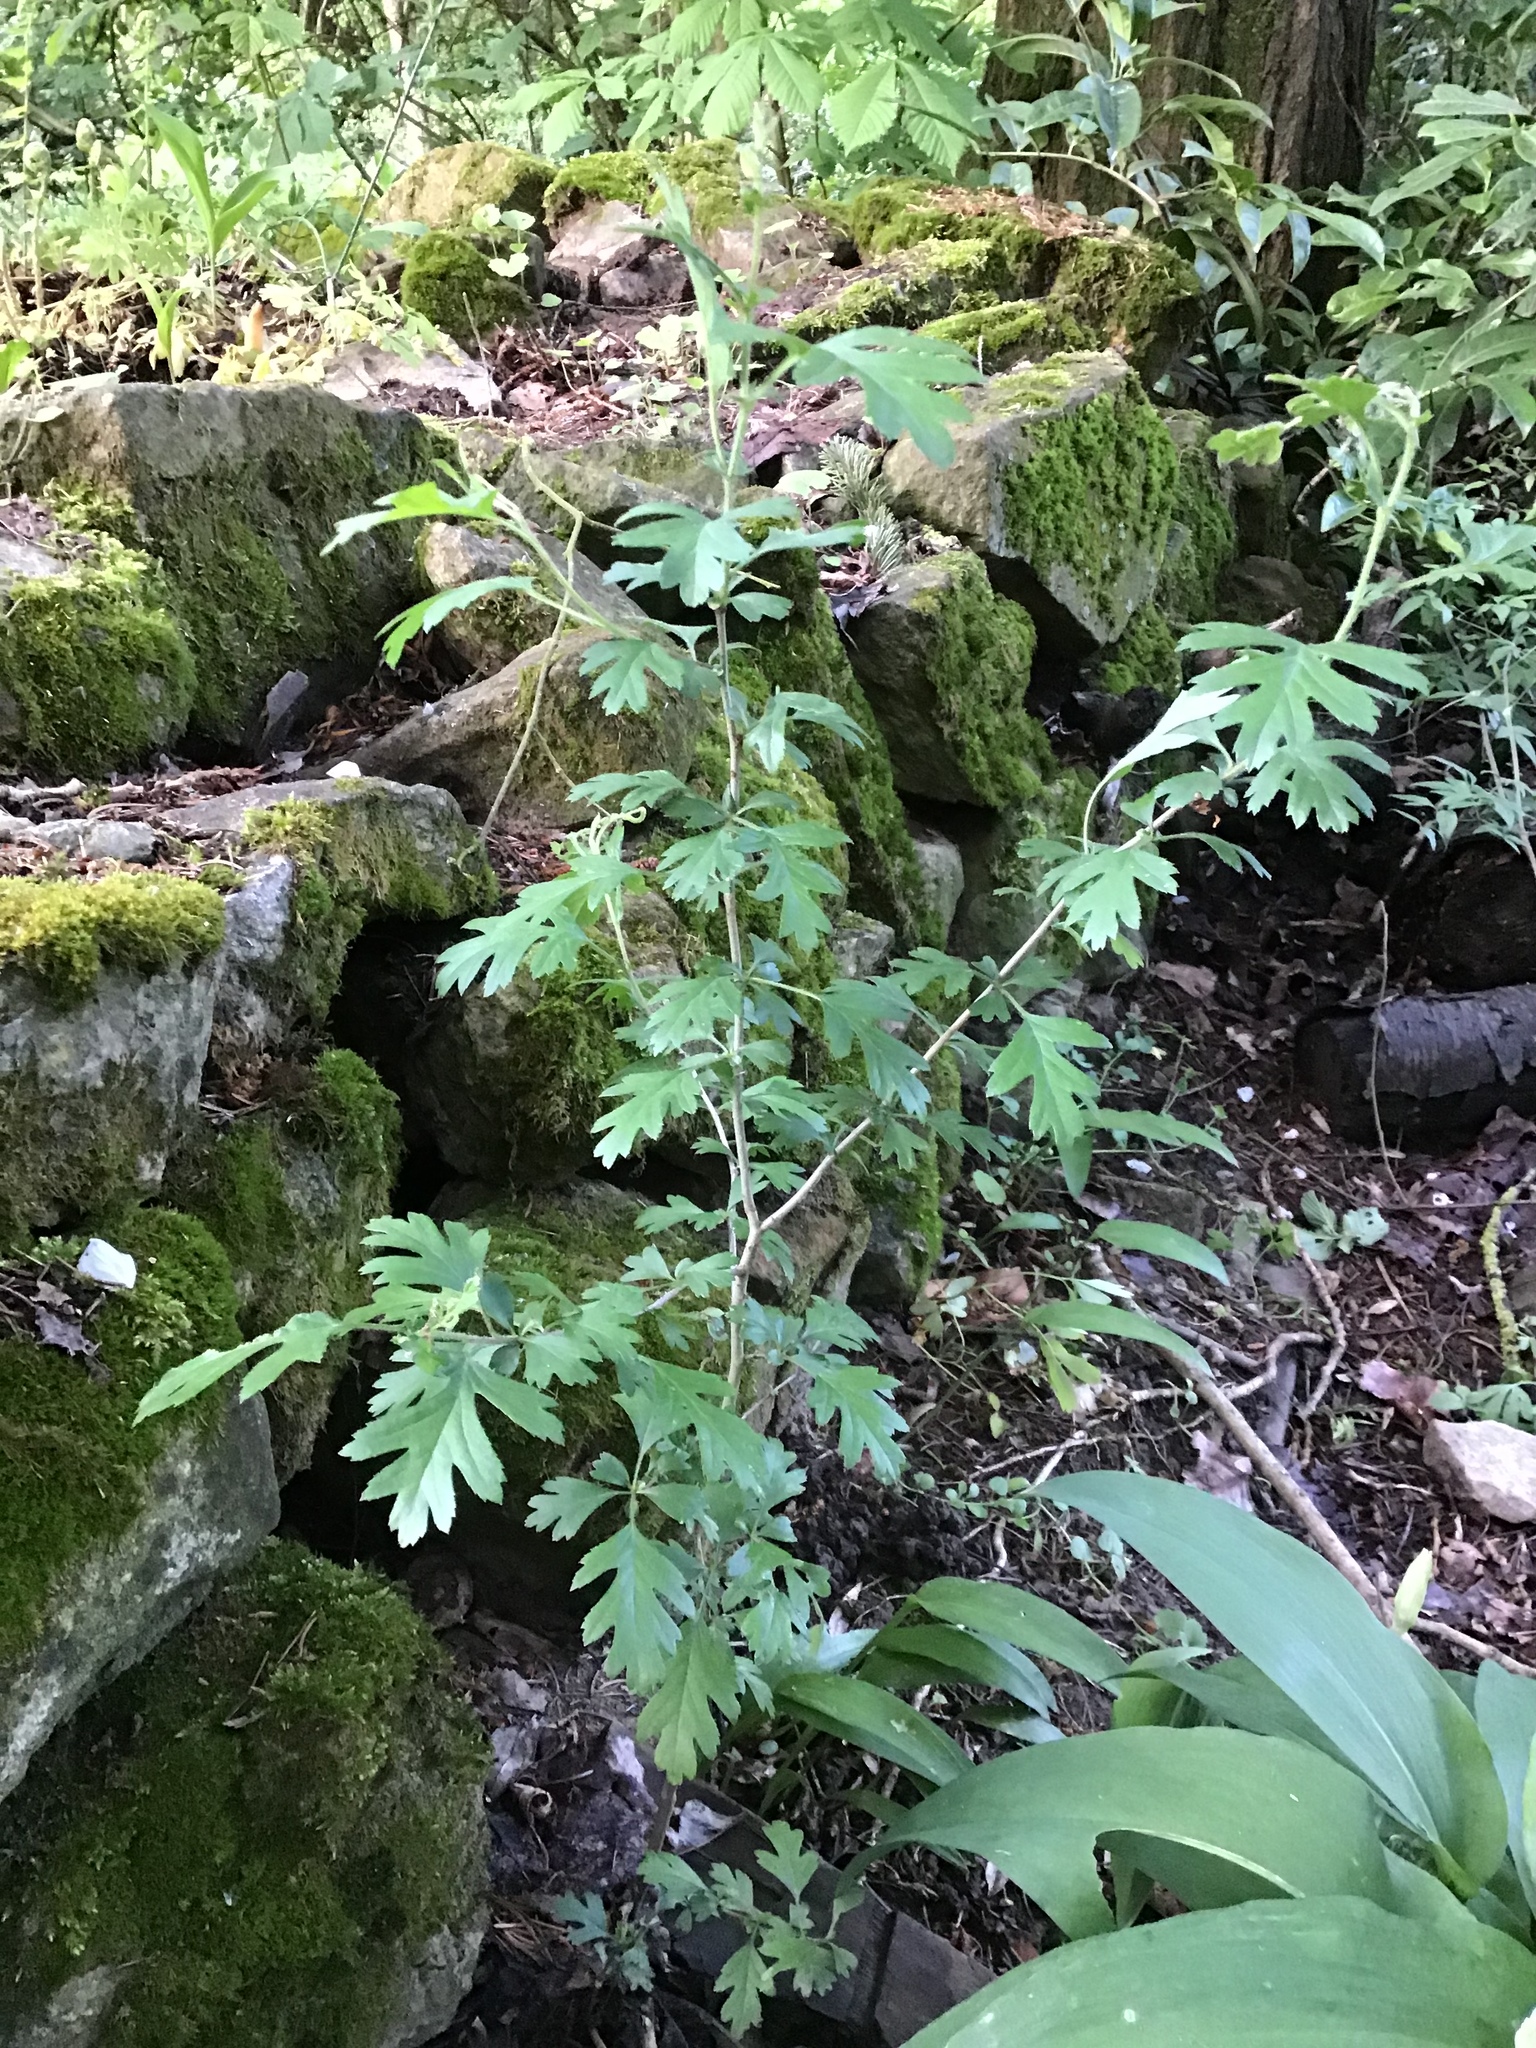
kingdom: Plantae
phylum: Tracheophyta
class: Magnoliopsida
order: Rosales
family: Rosaceae
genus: Crataegus
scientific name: Crataegus monogyna
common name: Hawthorn
